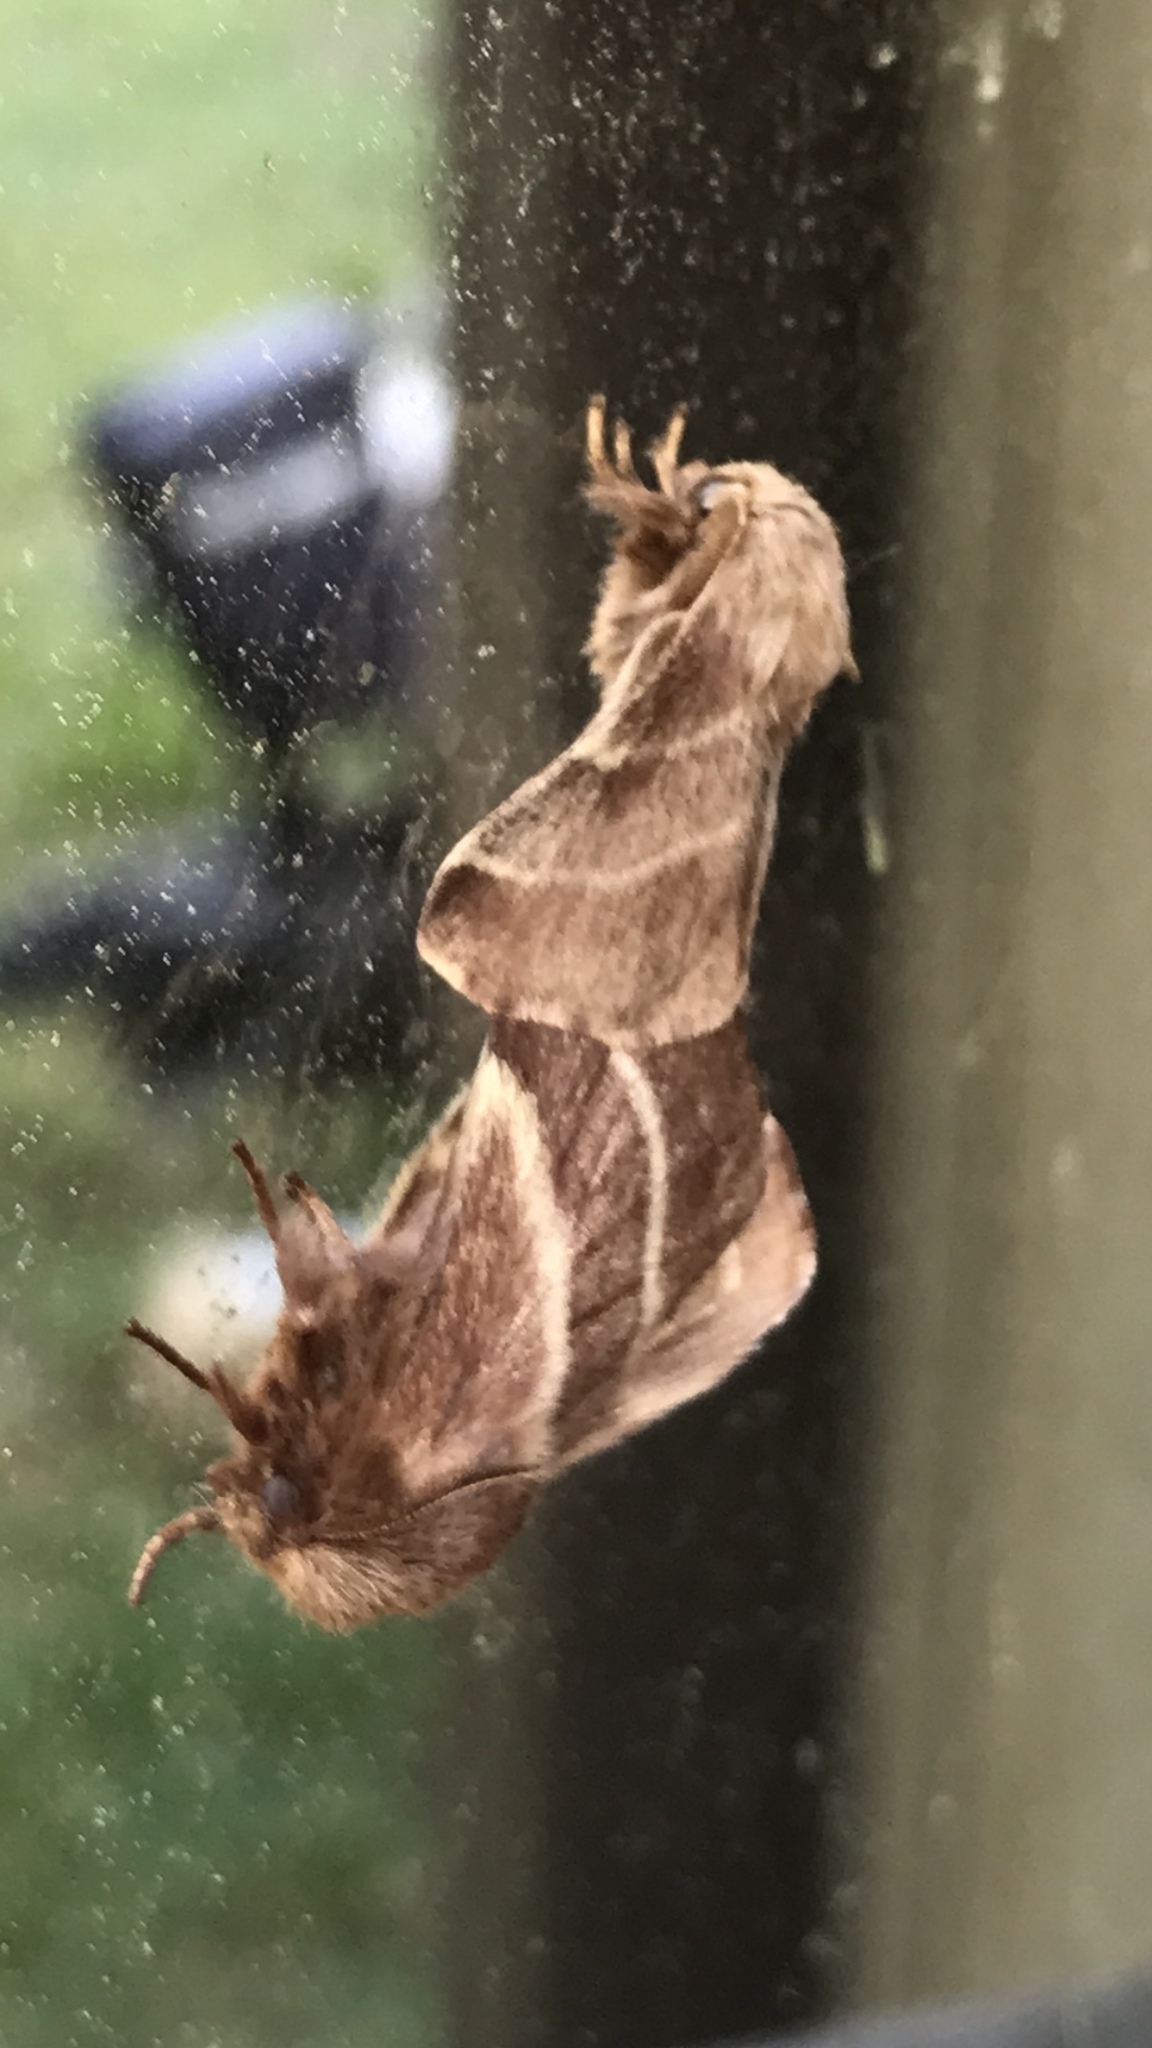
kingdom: Animalia
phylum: Arthropoda
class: Insecta
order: Lepidoptera
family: Lasiocampidae
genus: Malacosoma
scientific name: Malacosoma americana
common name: Eastern tent caterpillar moth
